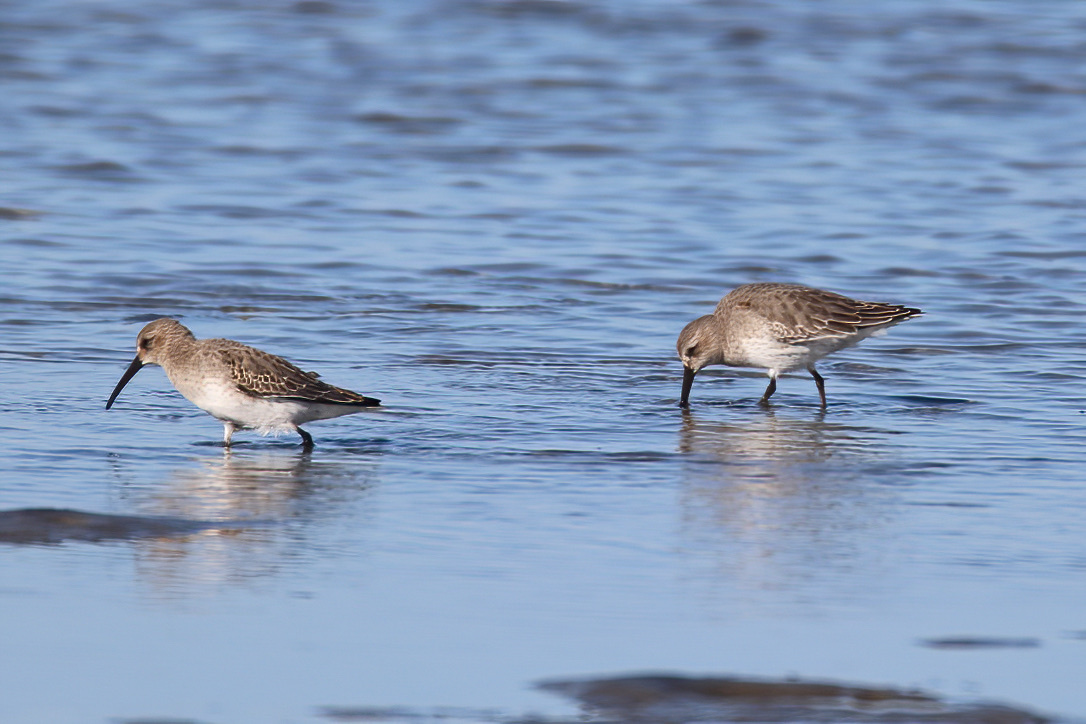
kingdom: Animalia
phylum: Chordata
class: Aves
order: Charadriiformes
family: Scolopacidae
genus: Calidris
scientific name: Calidris alpina
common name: Dunlin
